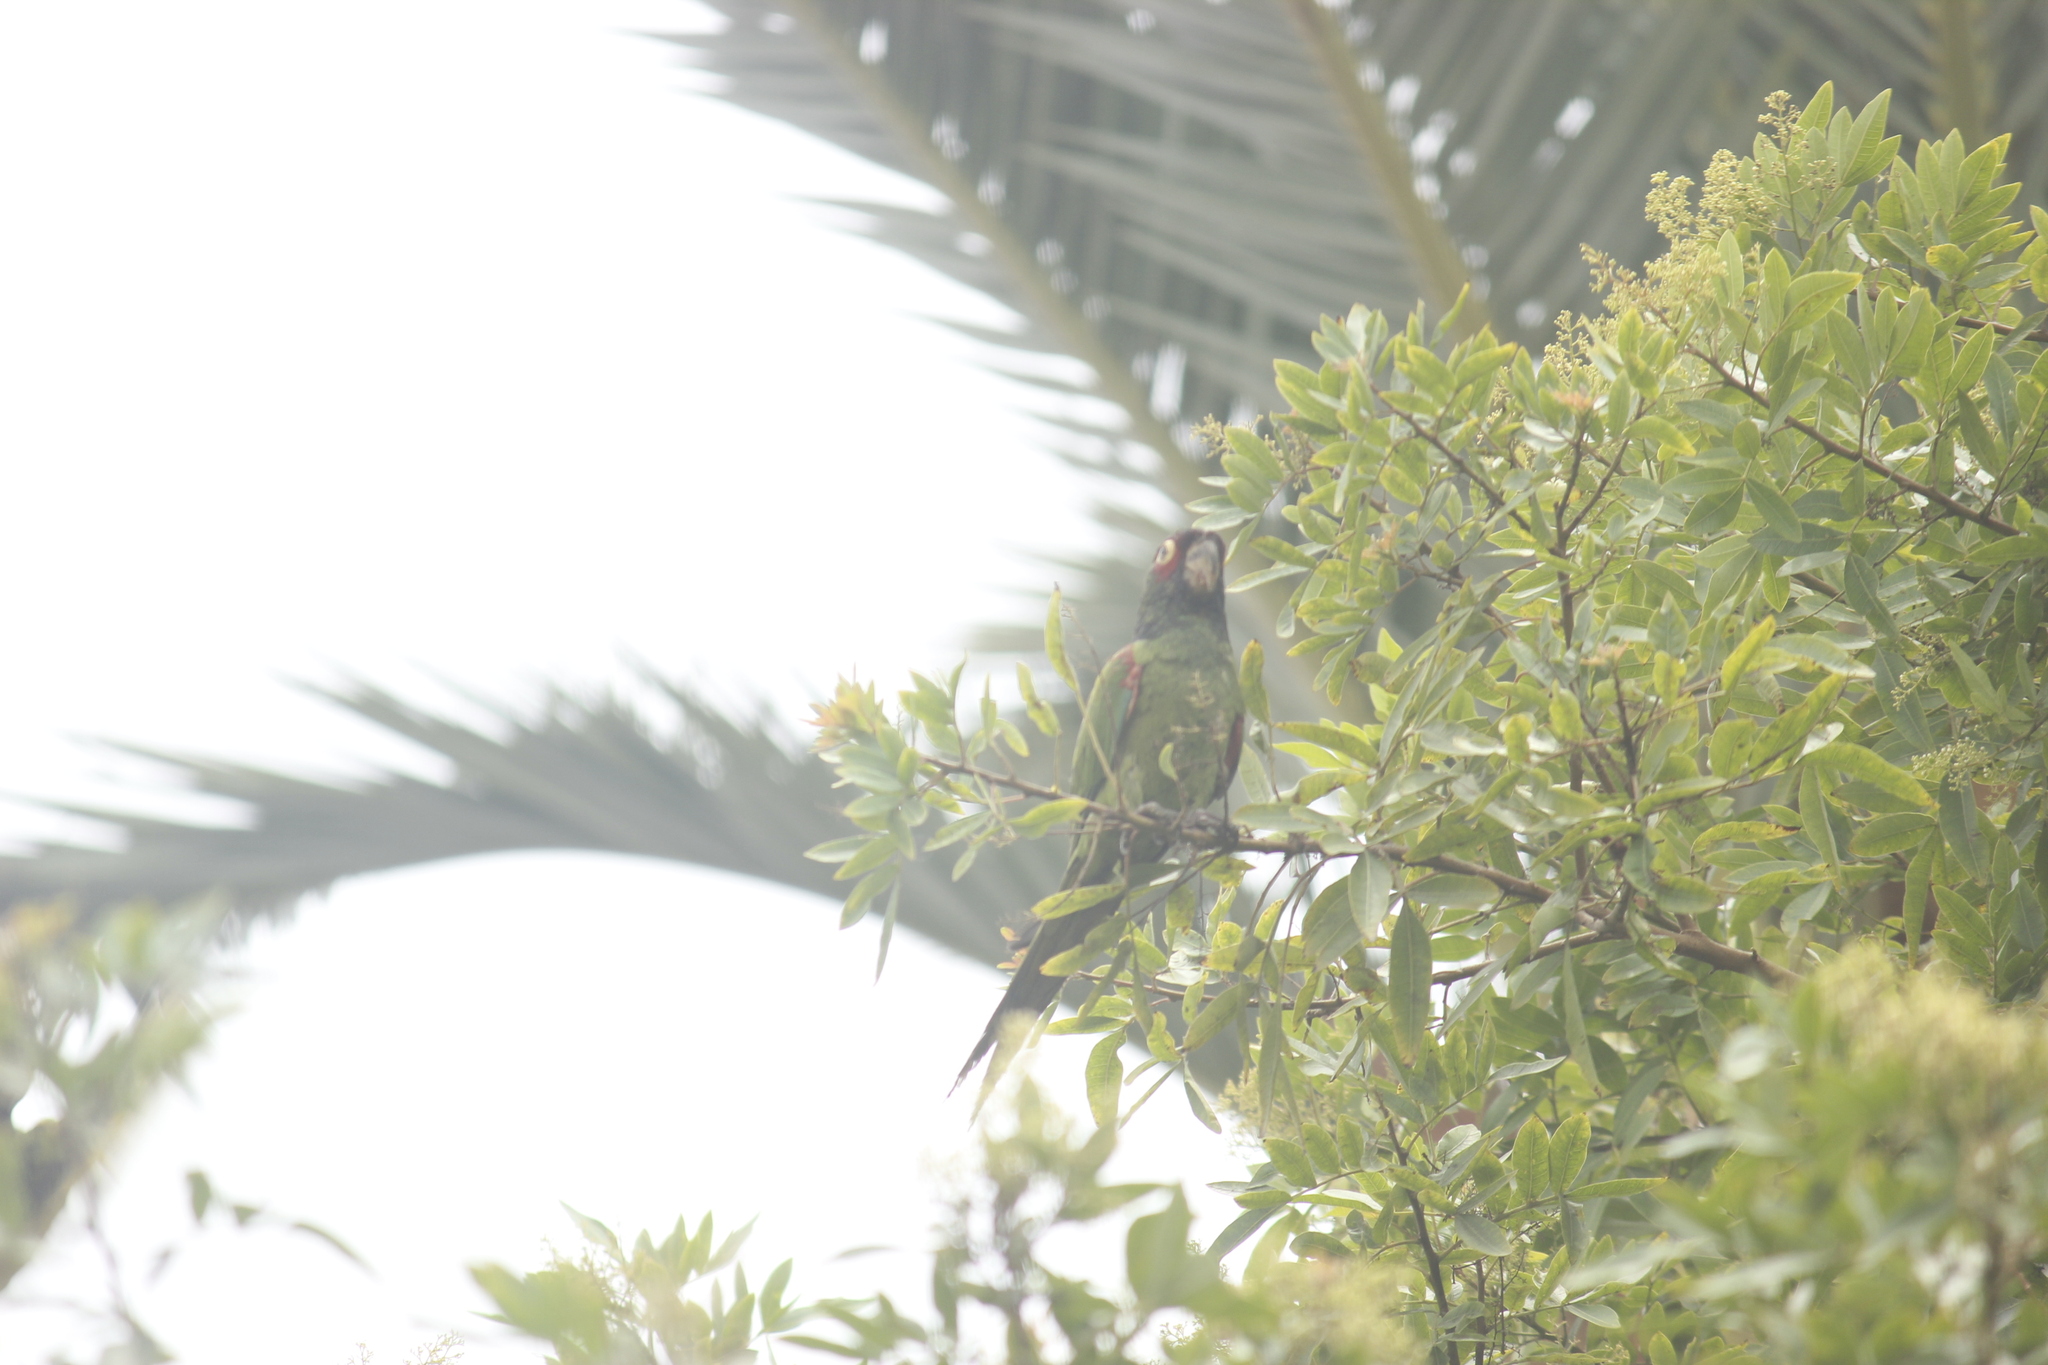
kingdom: Animalia
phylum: Chordata
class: Aves
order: Psittaciformes
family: Psittacidae
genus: Aratinga
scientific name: Aratinga erythrogenys
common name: Red-masked parakeet
